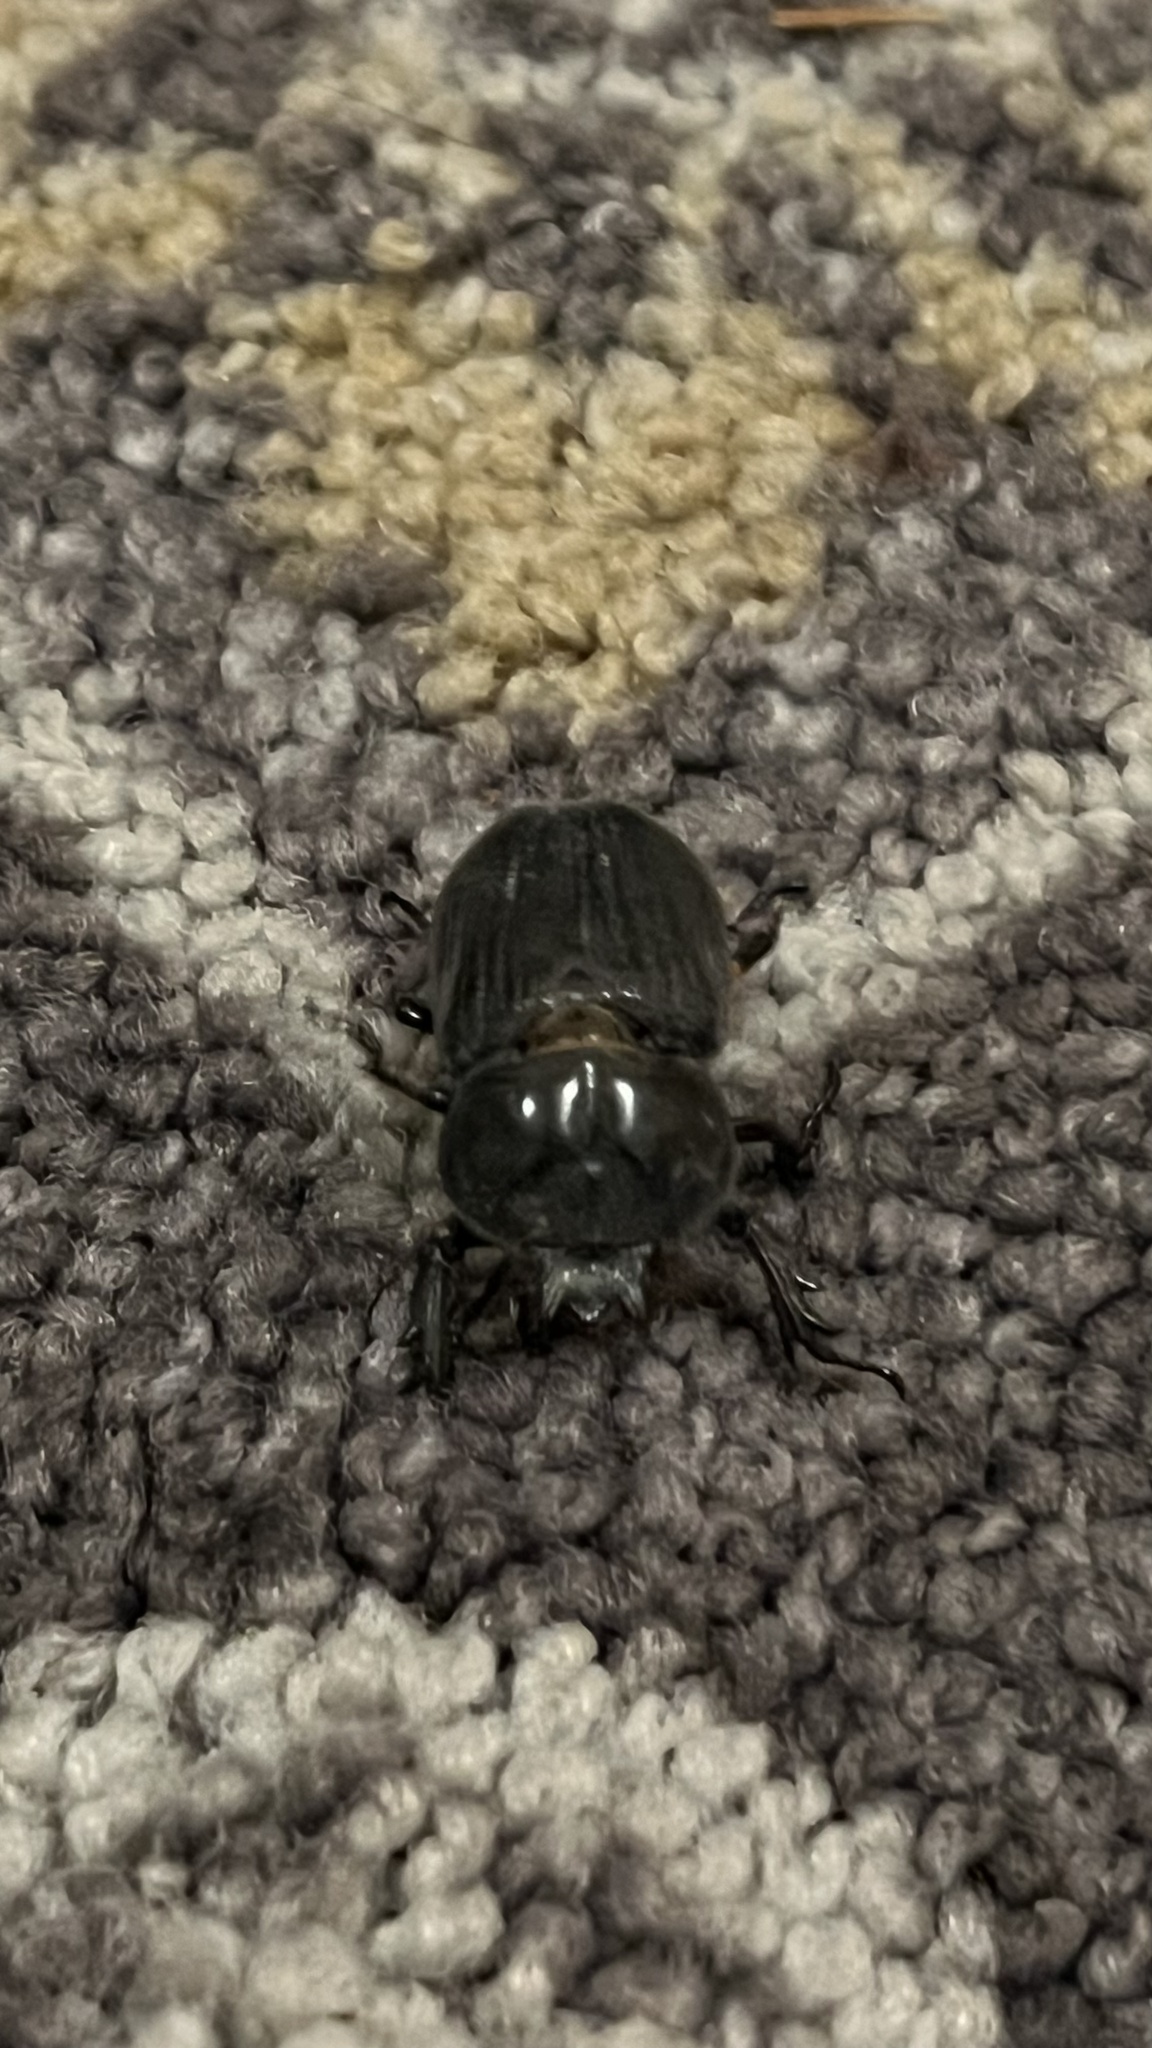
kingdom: Animalia
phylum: Arthropoda
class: Insecta
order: Coleoptera
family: Scarabaeidae
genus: Phileurus
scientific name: Phileurus truncatus
